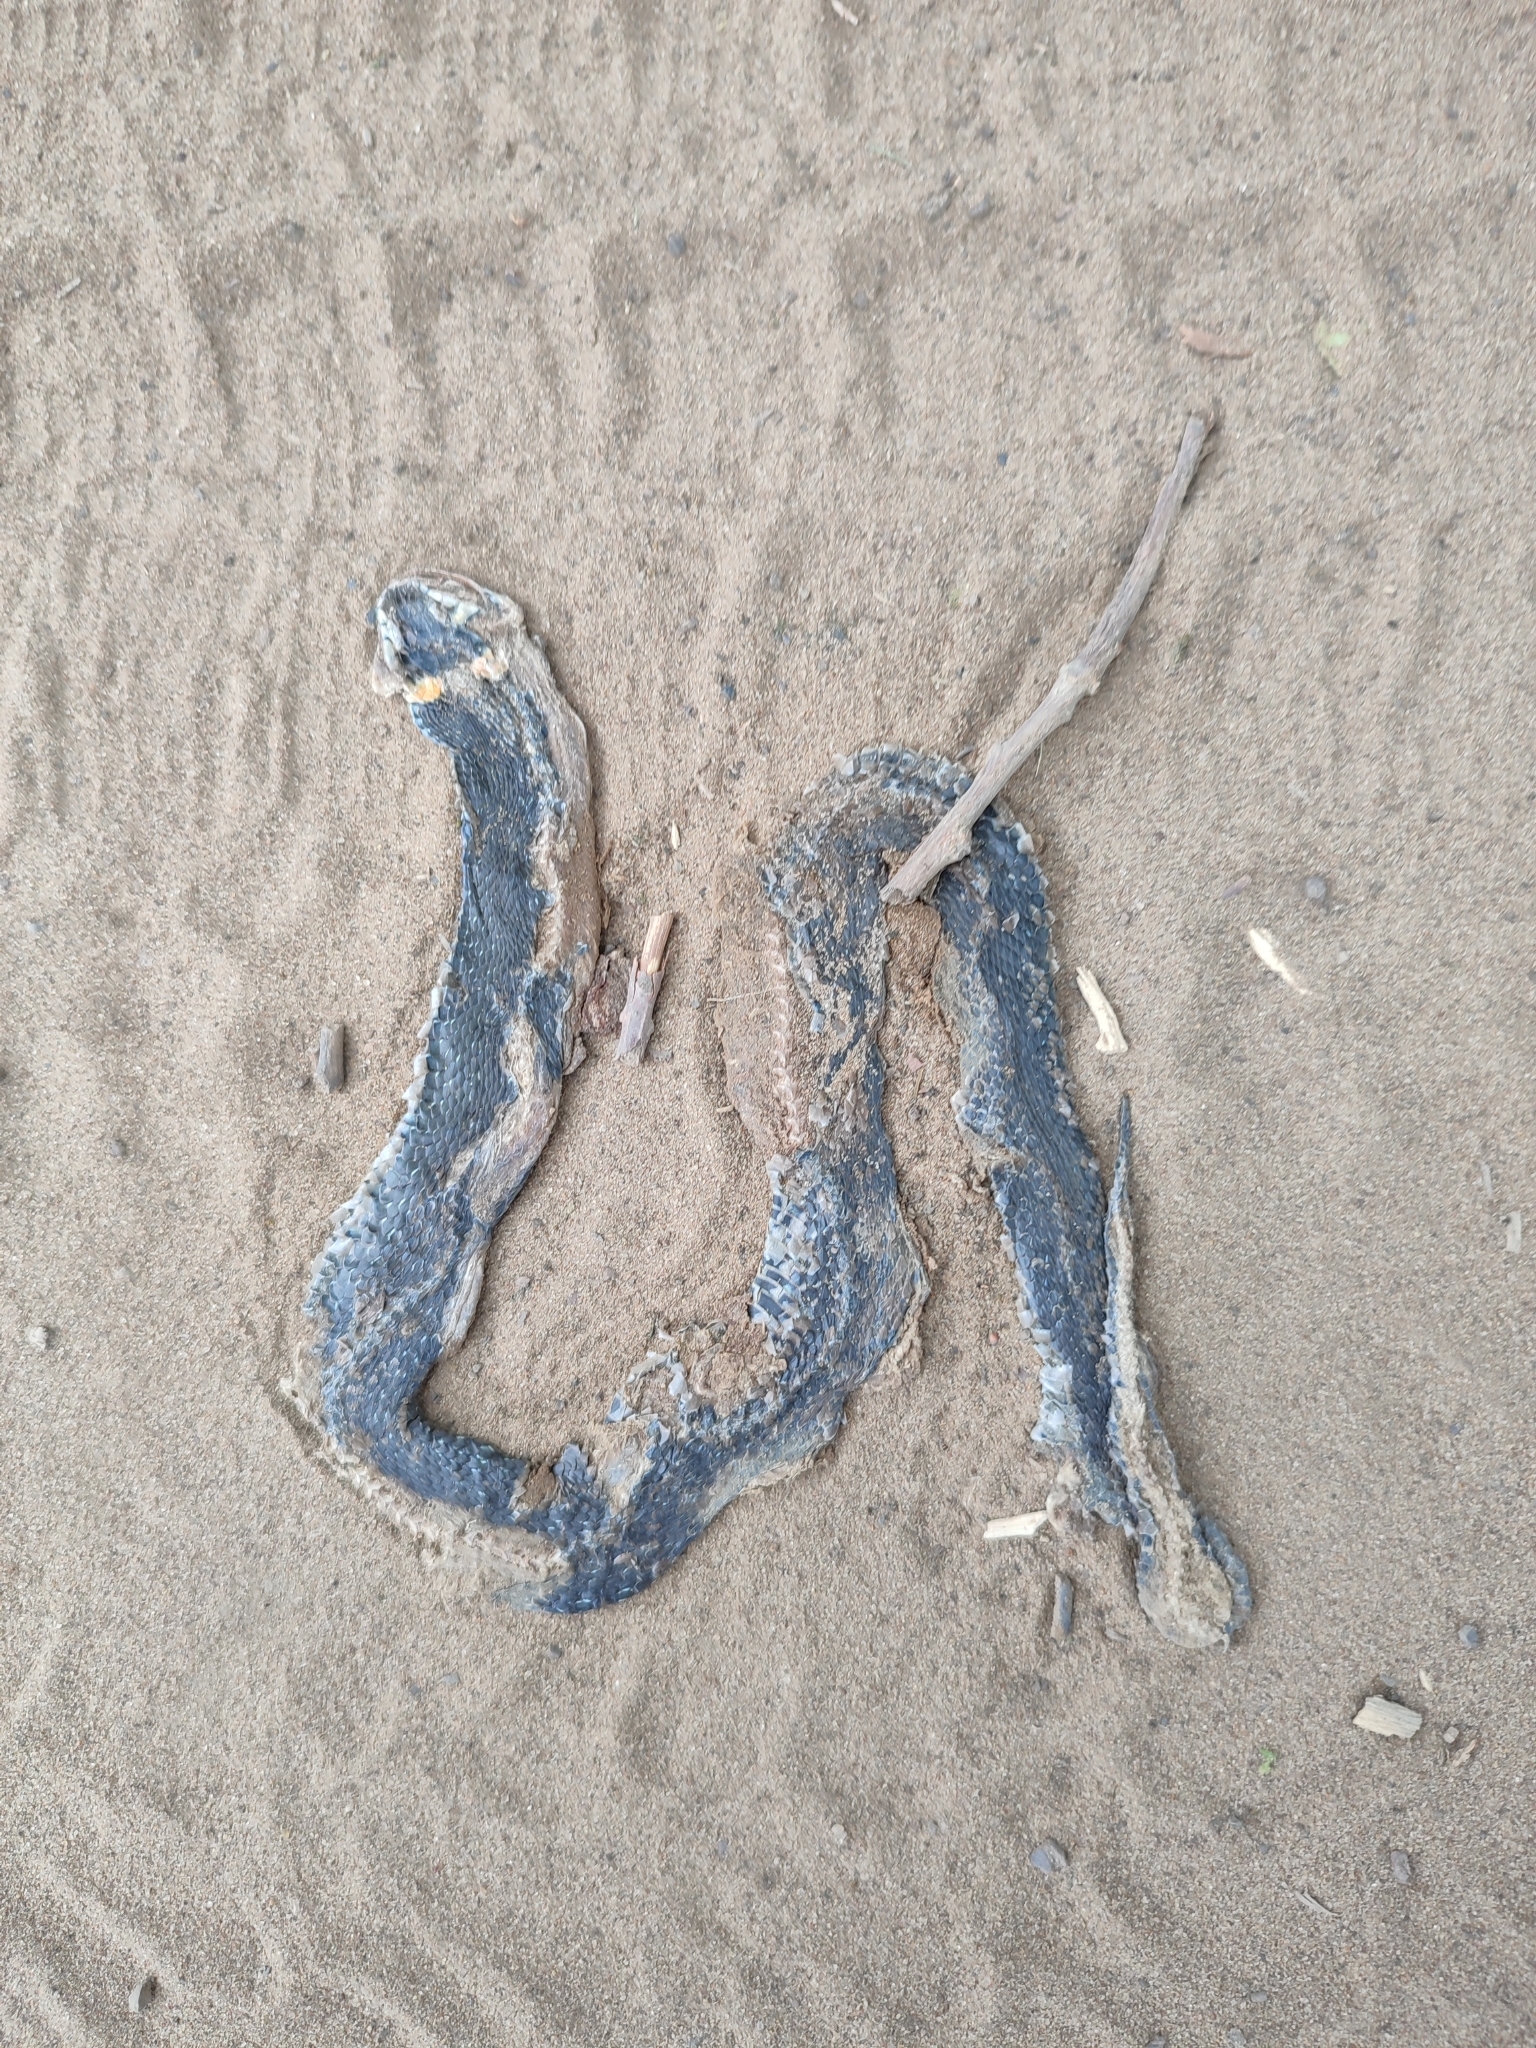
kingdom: Animalia
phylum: Chordata
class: Squamata
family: Colubridae
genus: Natrix
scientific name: Natrix natrix
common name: Grass snake
